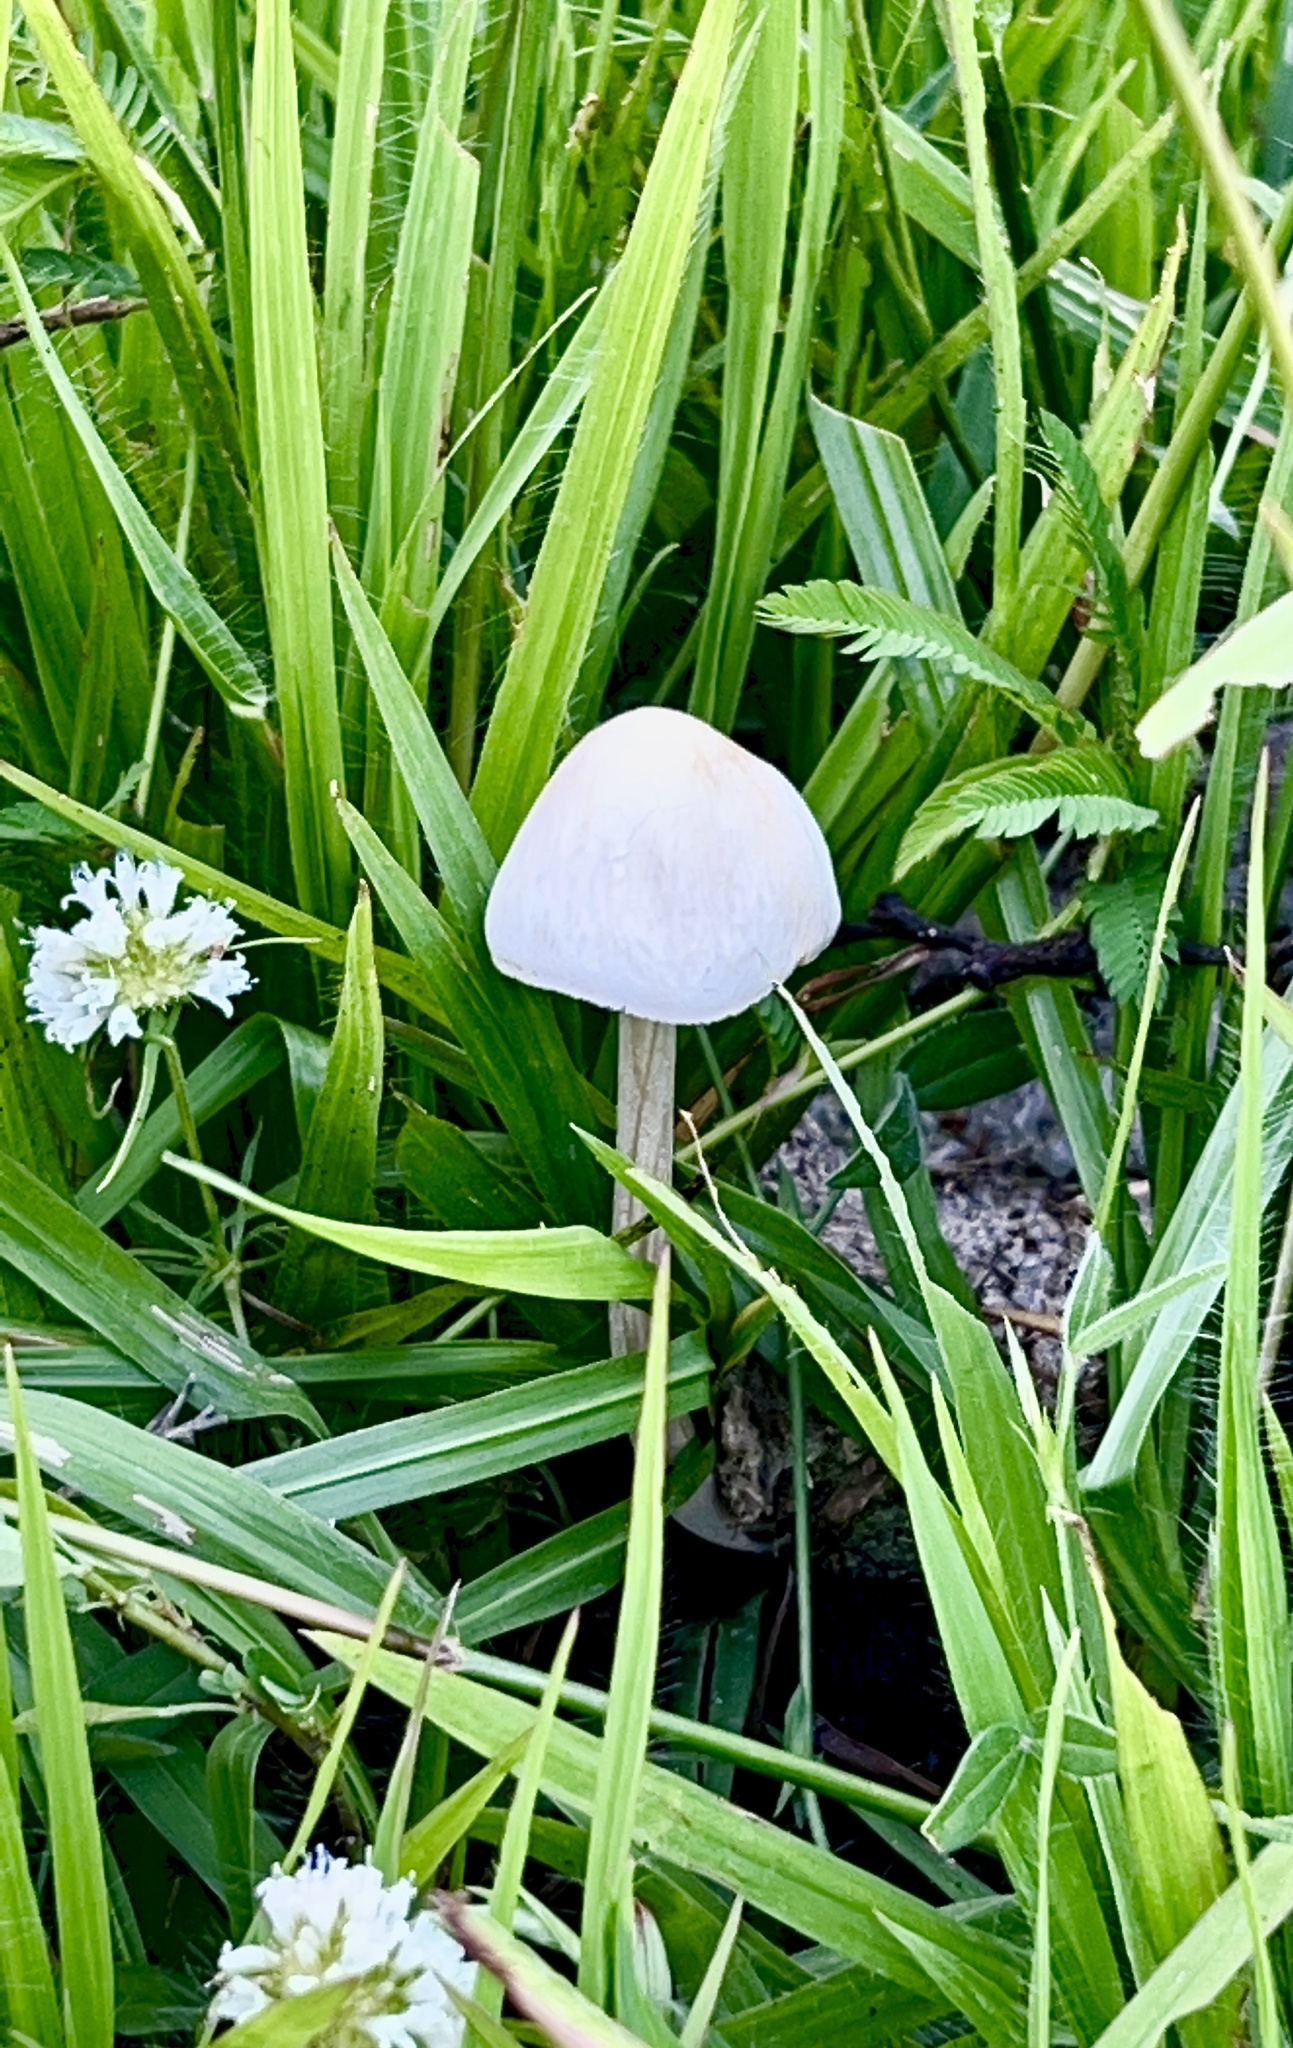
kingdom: Fungi
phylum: Basidiomycota
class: Agaricomycetes
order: Agaricales
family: Bolbitiaceae
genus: Panaeolus
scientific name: Panaeolus antillarum
